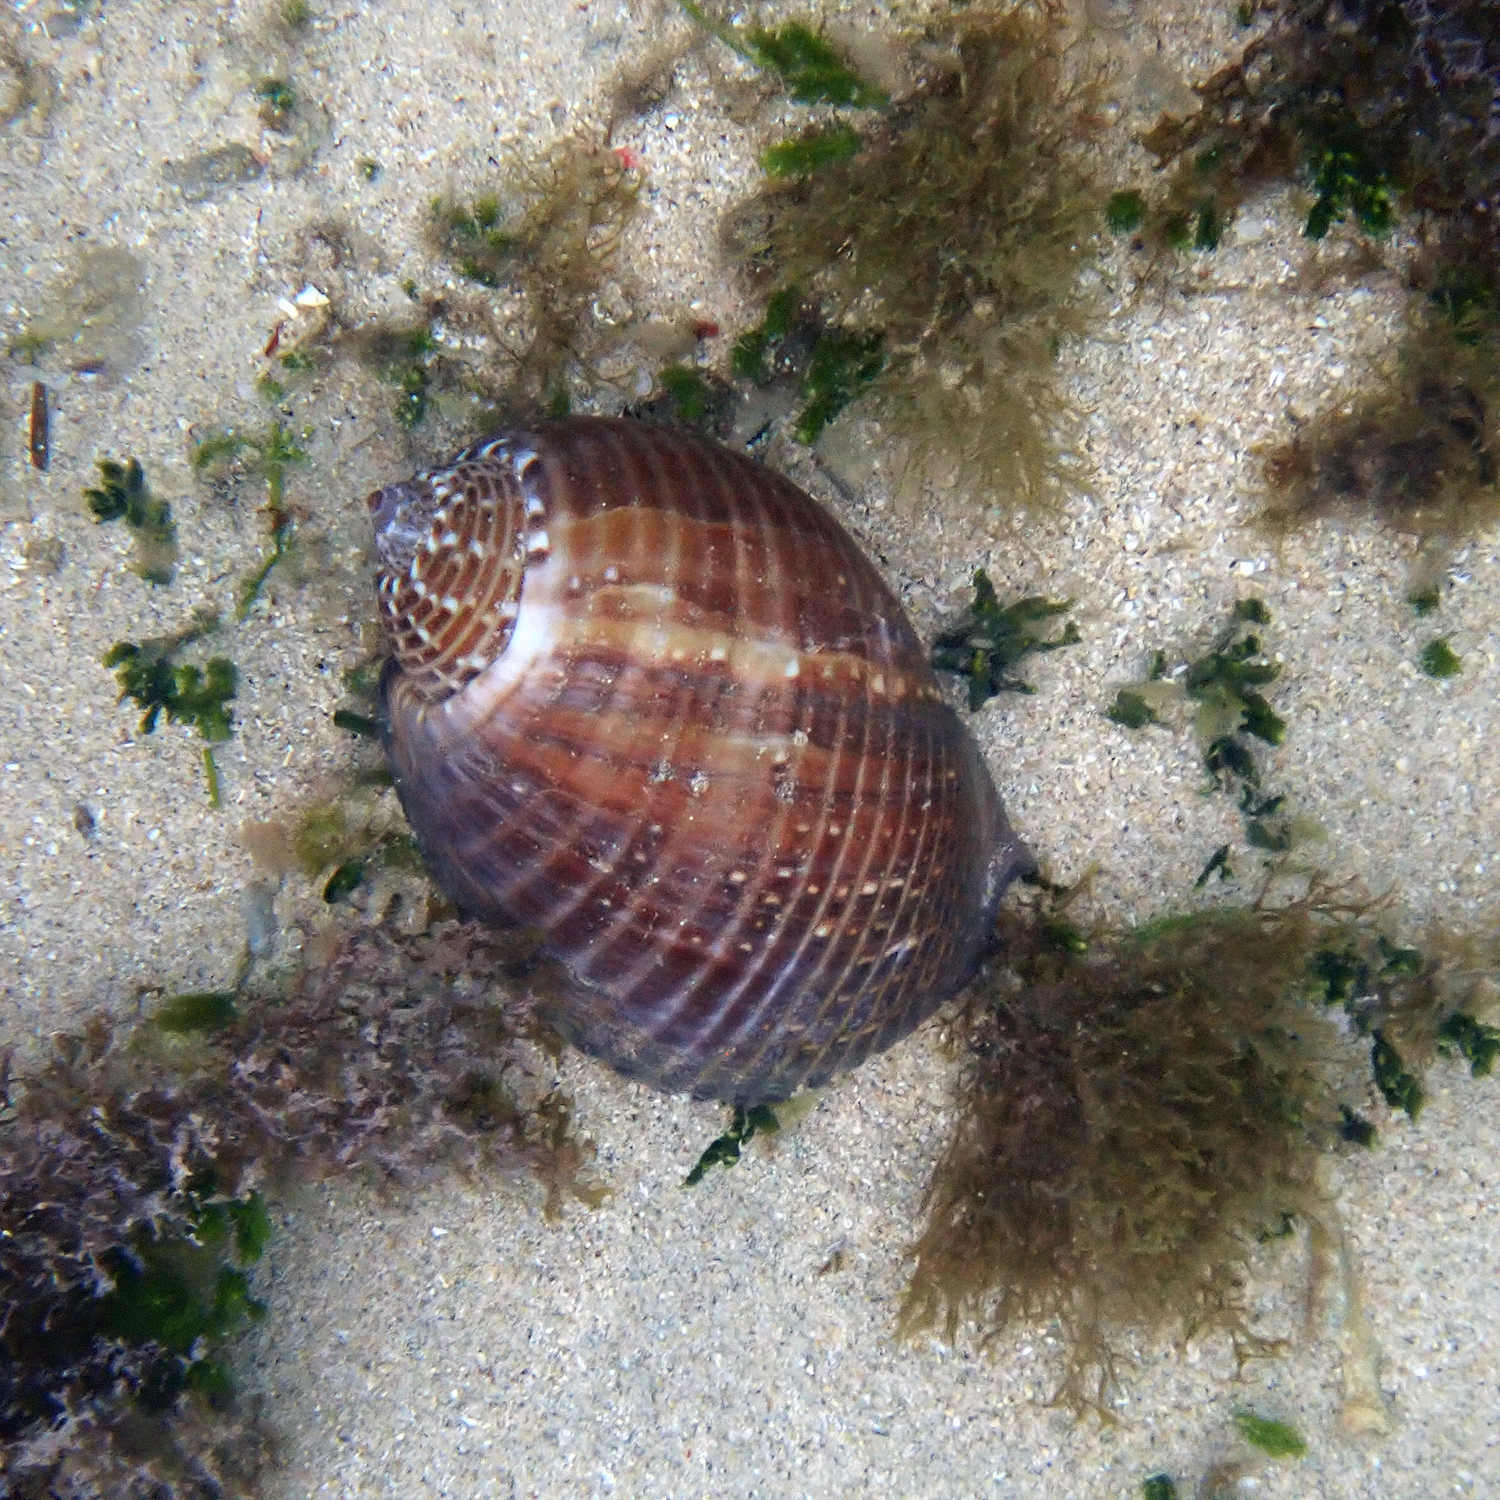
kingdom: Animalia
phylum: Mollusca
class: Gastropoda
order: Littorinimorpha
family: Tonnidae
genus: Tonna
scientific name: Tonna perdix
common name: Pacific partridge tun
